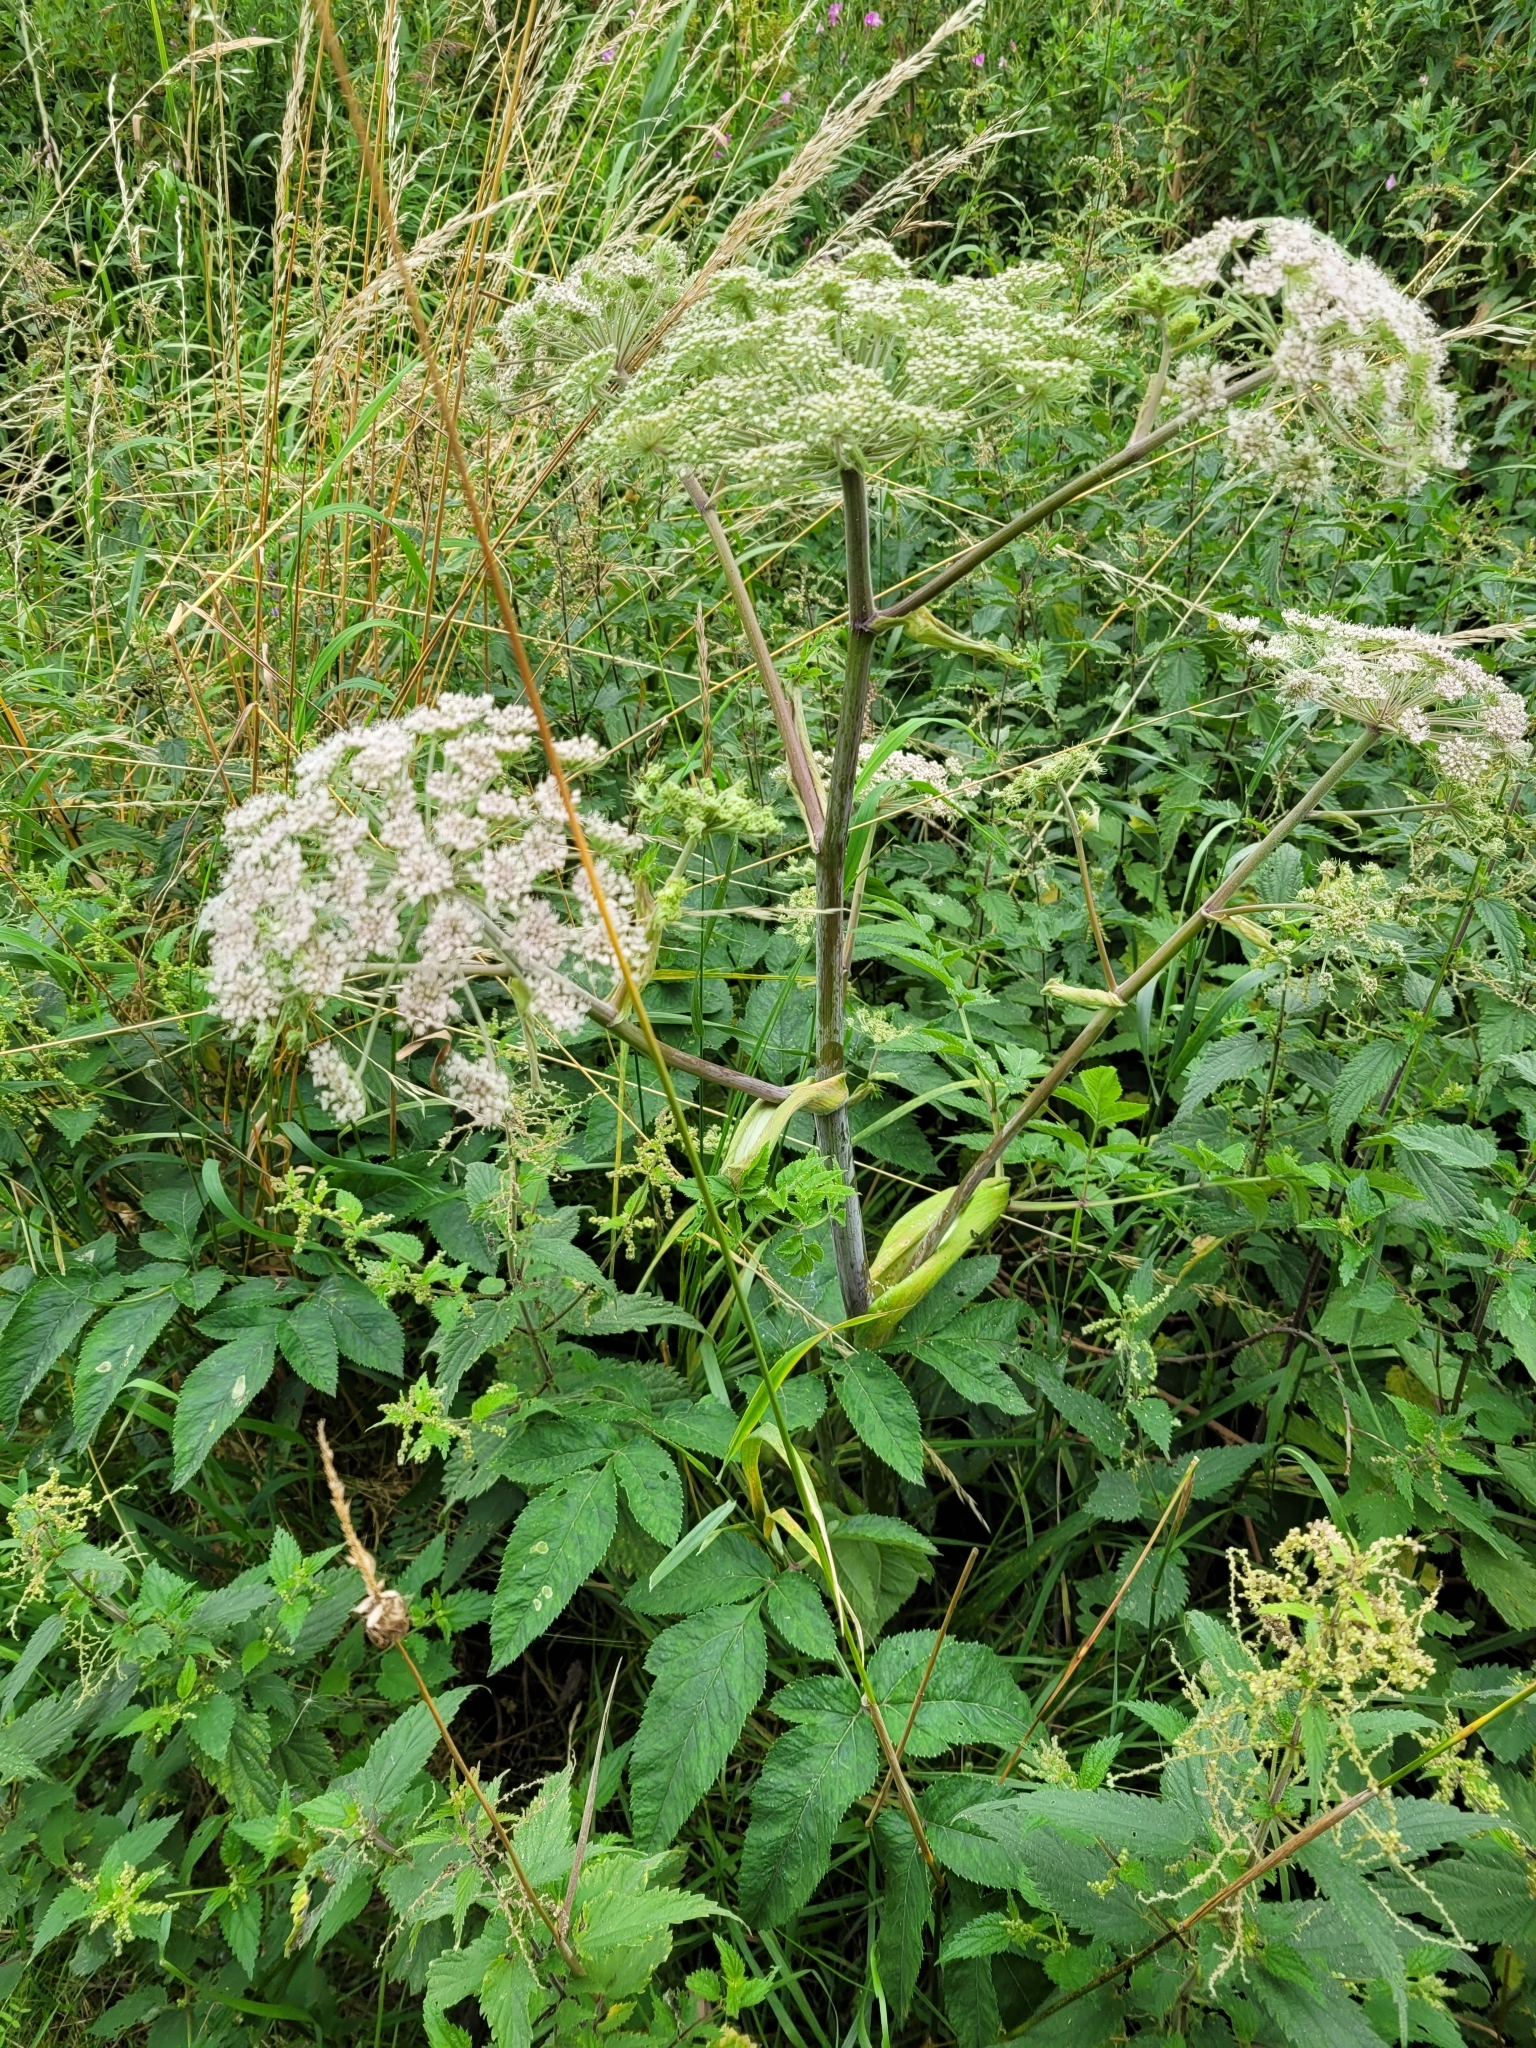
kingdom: Plantae
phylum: Tracheophyta
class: Magnoliopsida
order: Apiales
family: Apiaceae
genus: Angelica
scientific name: Angelica sylvestris
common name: Wild angelica
